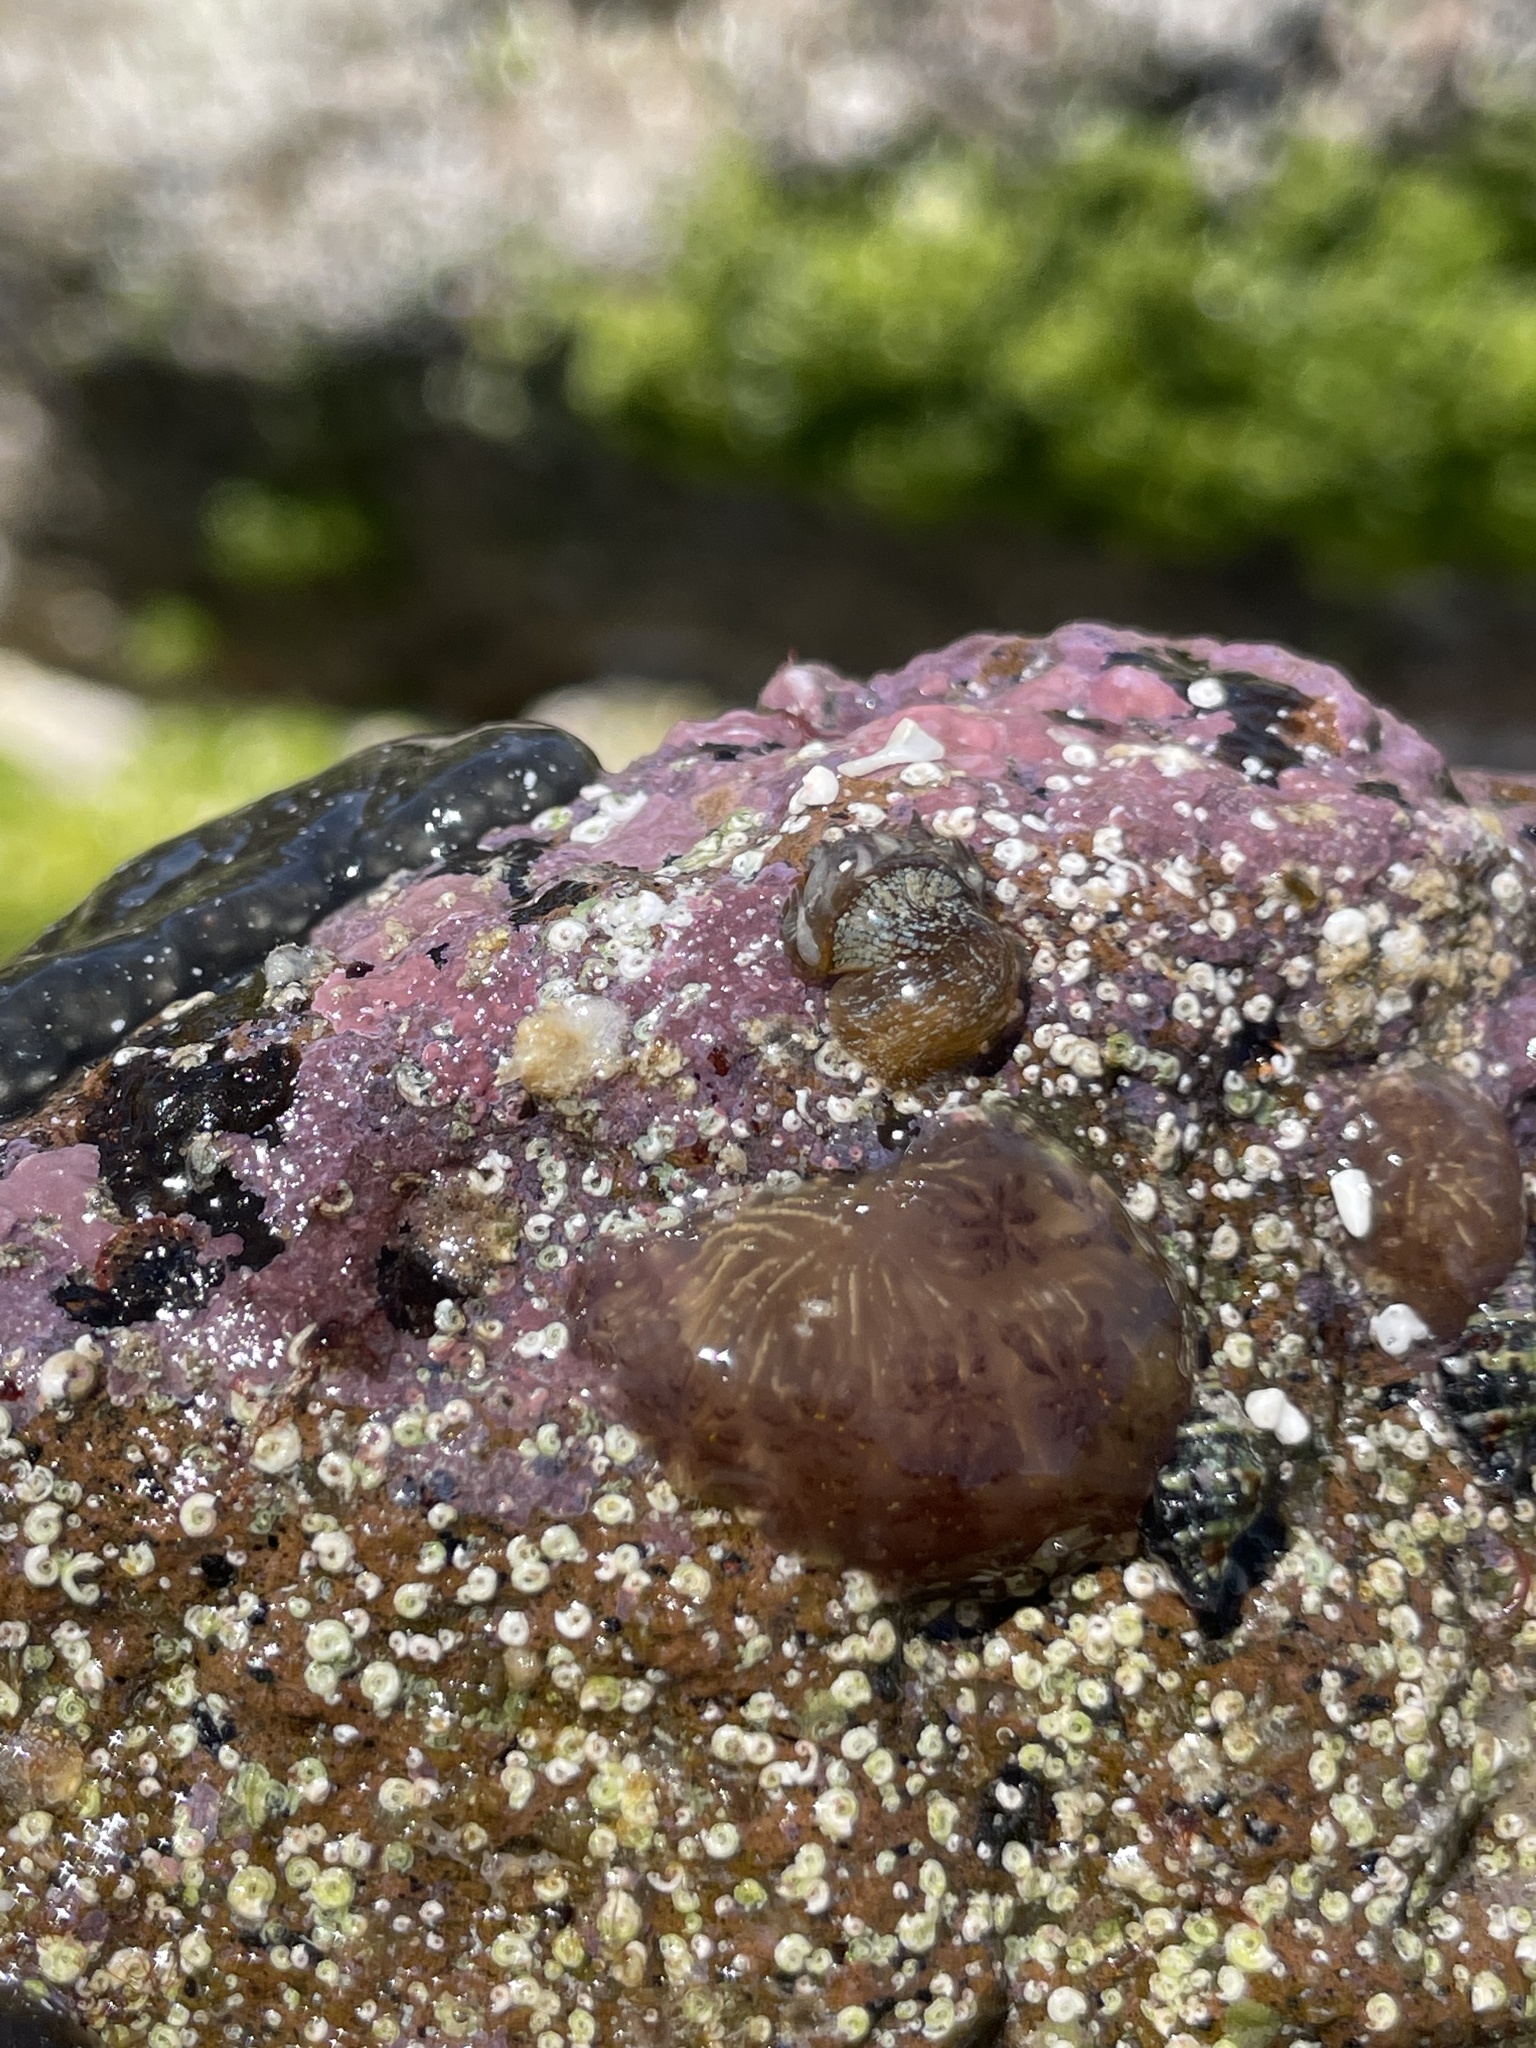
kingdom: Animalia
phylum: Cnidaria
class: Anthozoa
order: Actiniaria
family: Aiptasiidae
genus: Exaiptasia
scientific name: Exaiptasia diaphana
